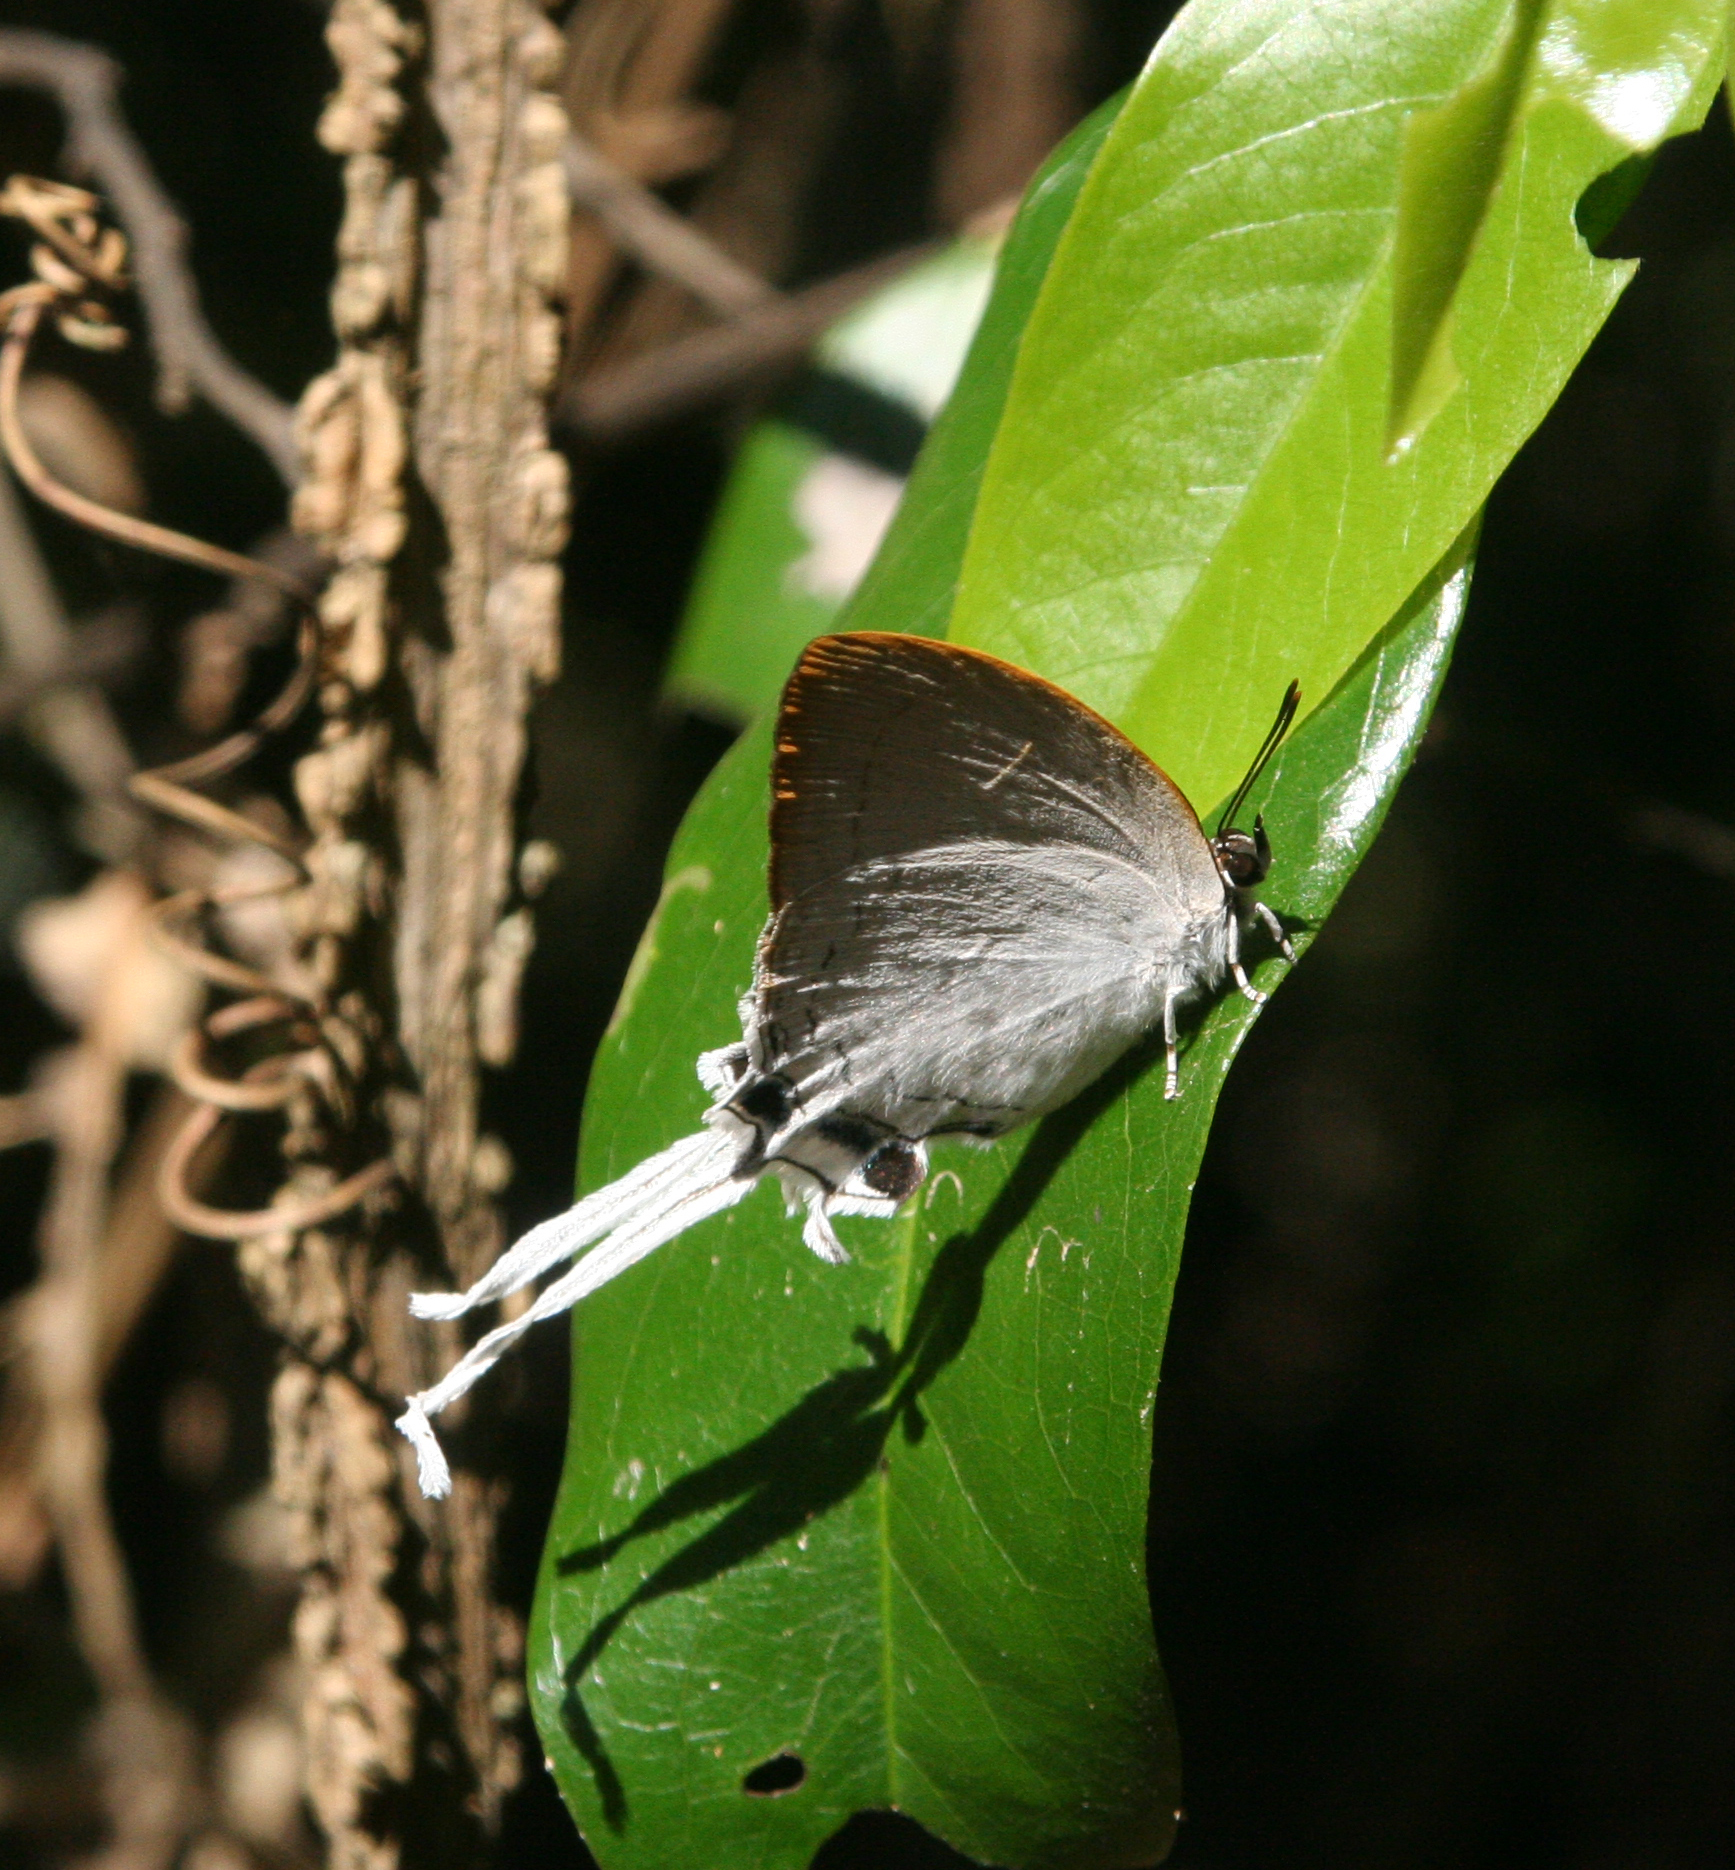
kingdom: Animalia
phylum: Arthropoda
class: Insecta
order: Lepidoptera
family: Lycaenidae
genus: Cheritra
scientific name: Cheritra freja
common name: Common imperial
